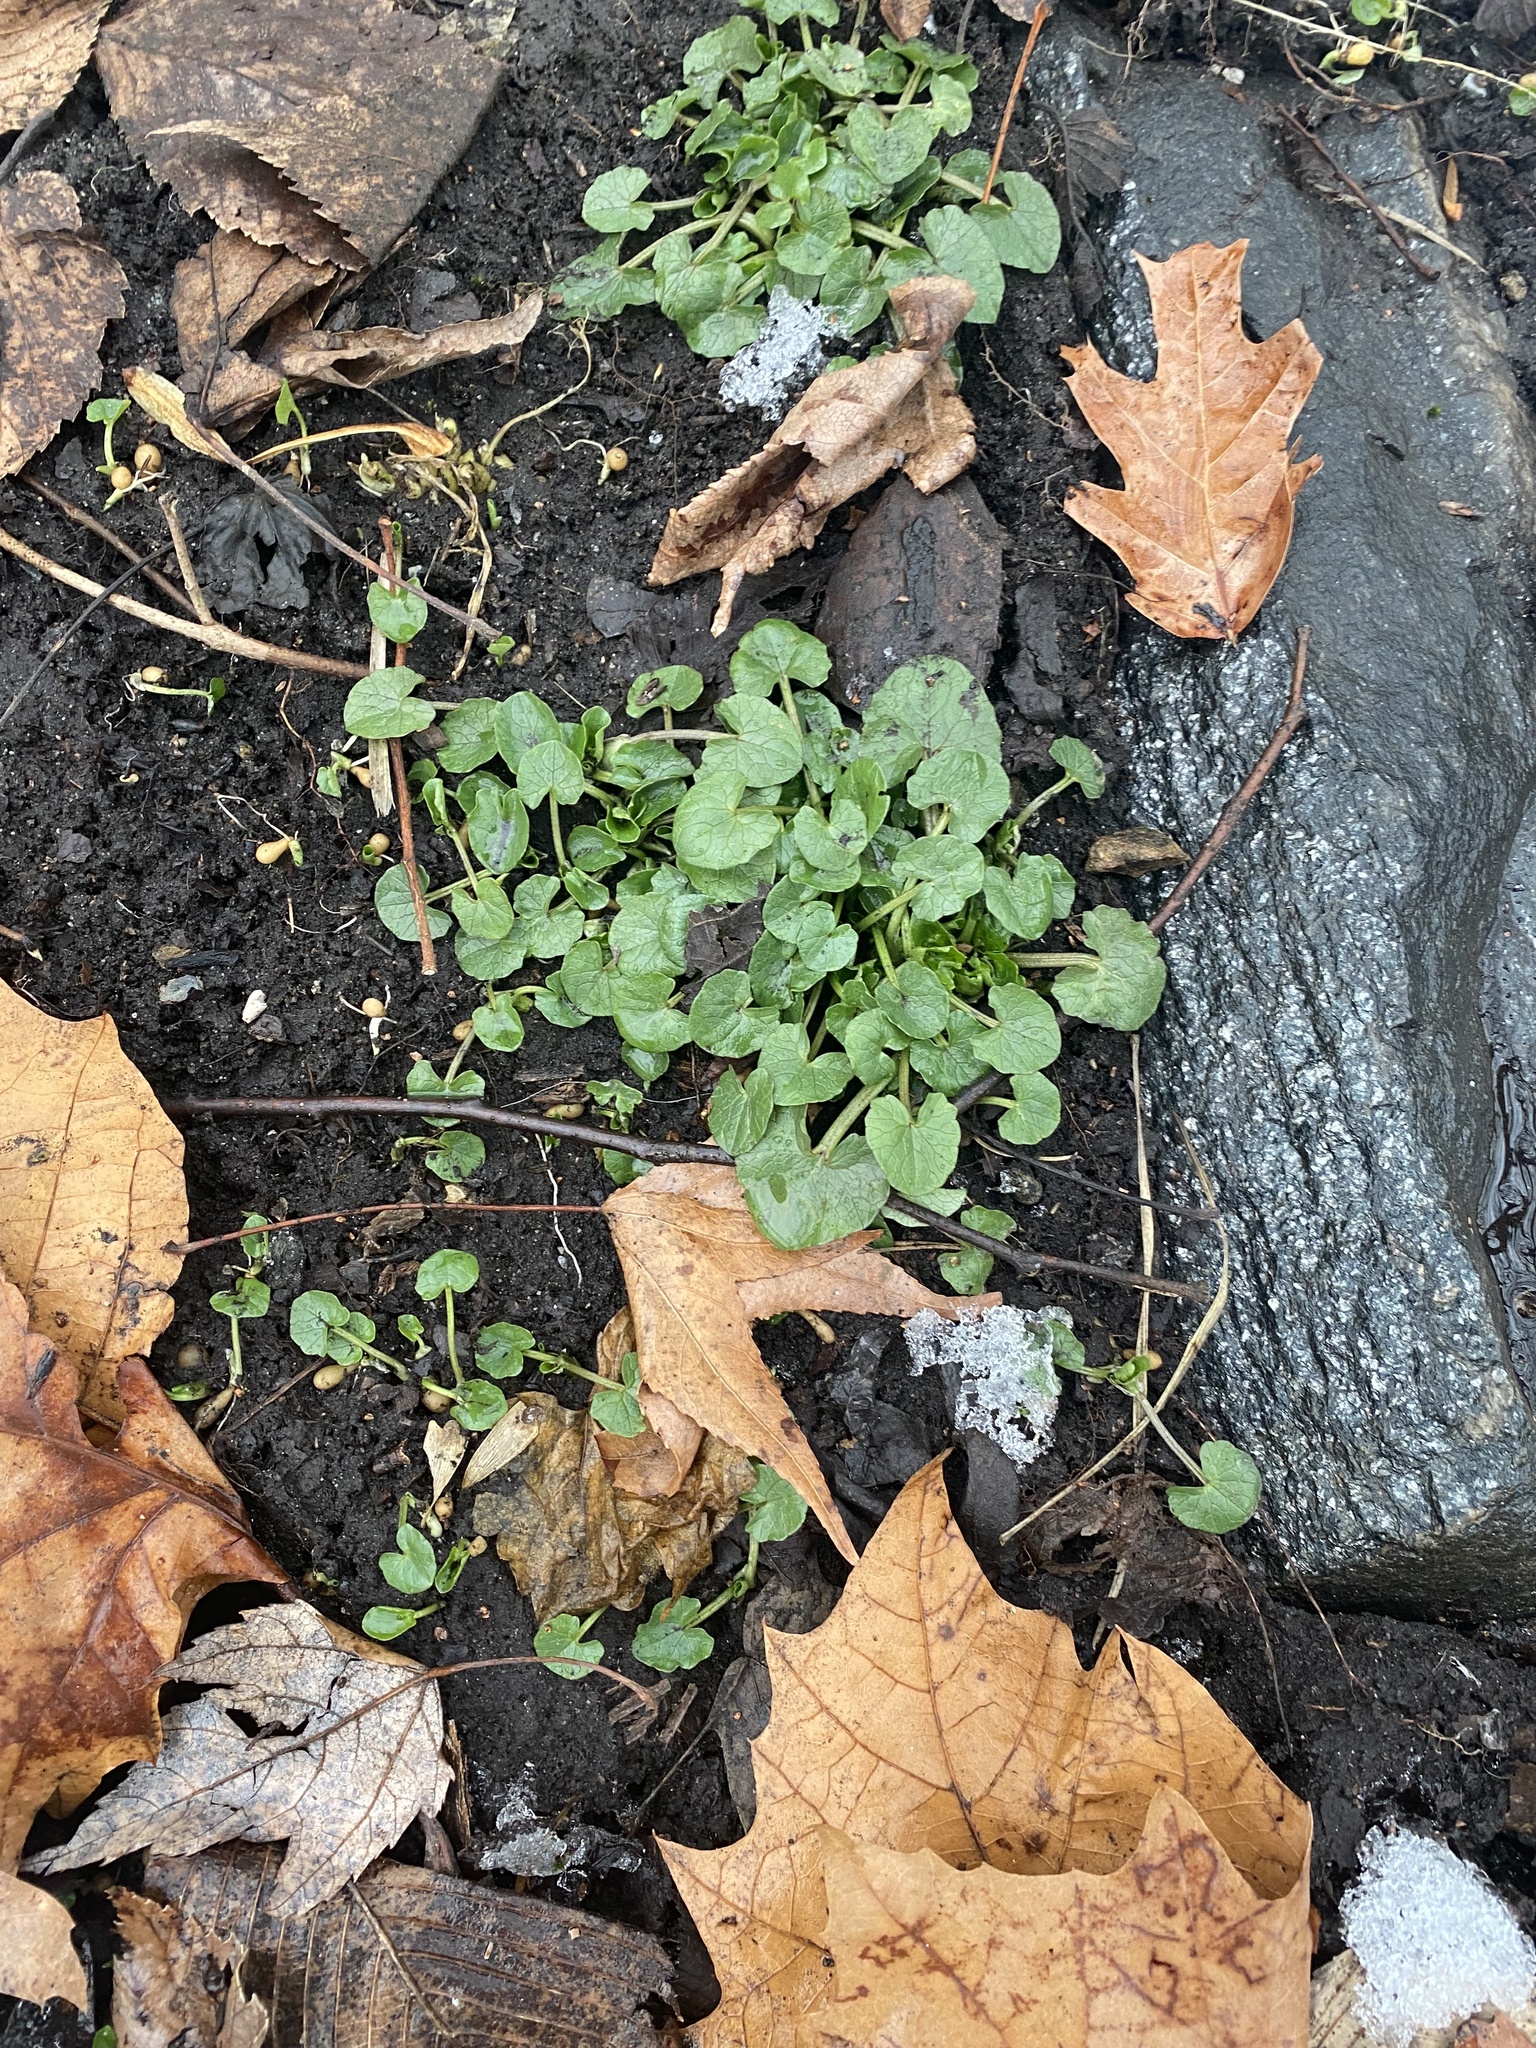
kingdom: Plantae
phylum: Tracheophyta
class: Magnoliopsida
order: Ranunculales
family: Ranunculaceae
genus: Ficaria
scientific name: Ficaria verna
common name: Lesser celandine
